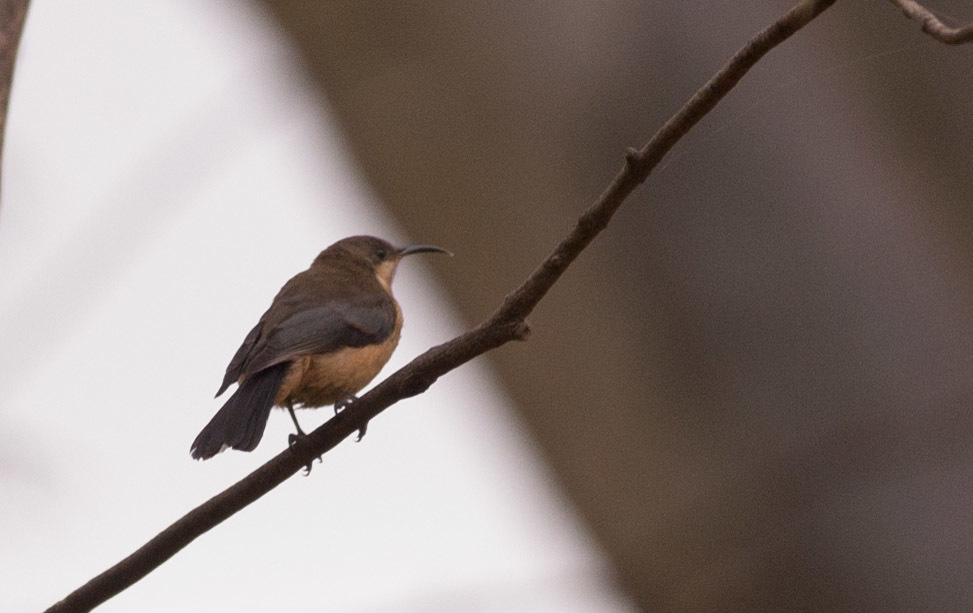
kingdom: Animalia
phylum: Chordata
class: Aves
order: Passeriformes
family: Meliphagidae
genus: Acanthorhynchus
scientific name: Acanthorhynchus tenuirostris
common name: Eastern spinebill
